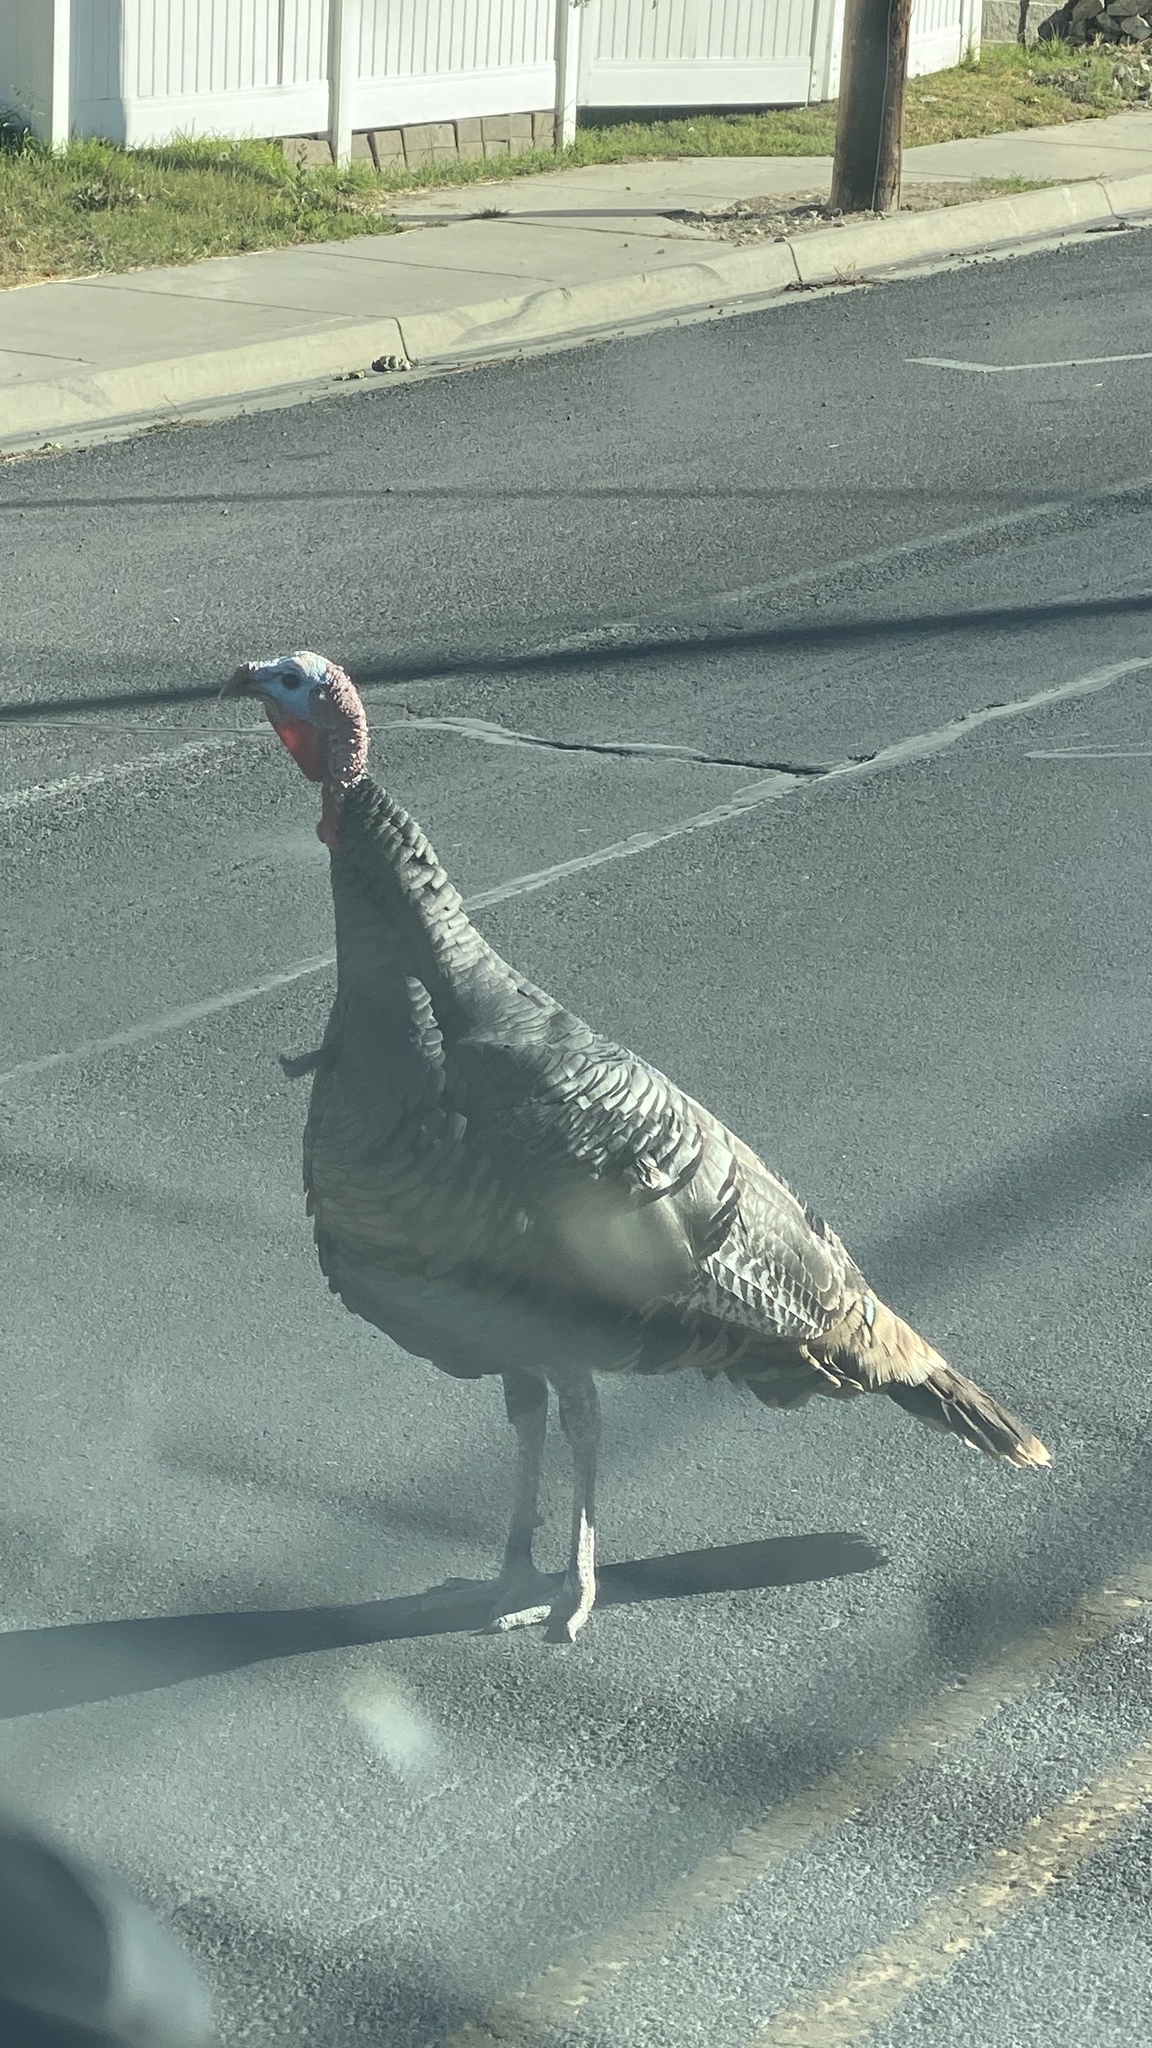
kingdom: Animalia
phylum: Chordata
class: Aves
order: Galliformes
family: Phasianidae
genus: Meleagris
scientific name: Meleagris gallopavo
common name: Wild turkey
